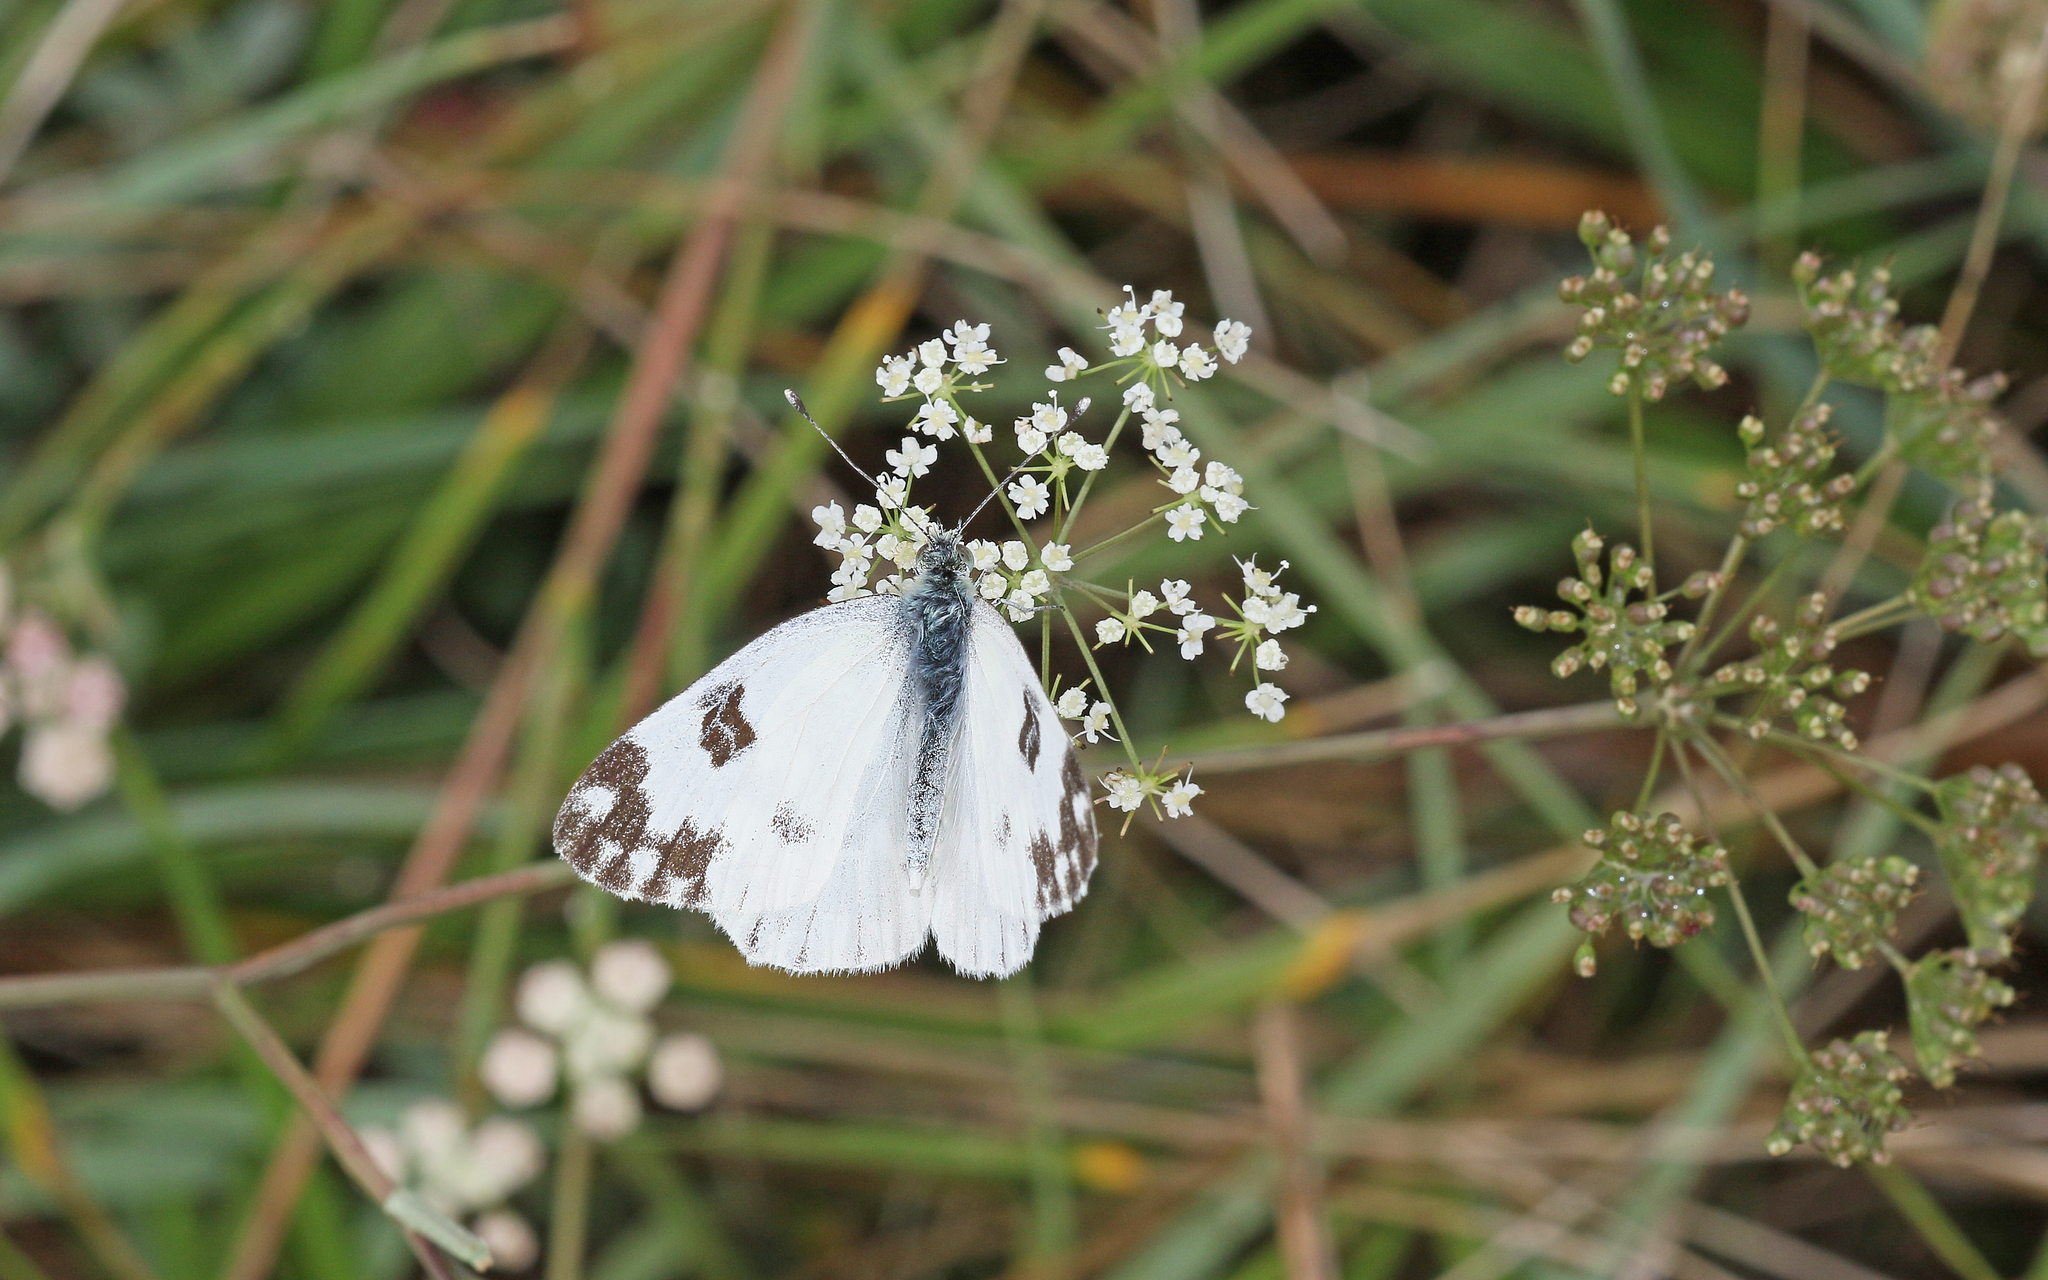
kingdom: Animalia
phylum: Arthropoda
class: Insecta
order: Lepidoptera
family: Pieridae
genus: Pontia
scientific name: Pontia edusa
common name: Eastern bath white
